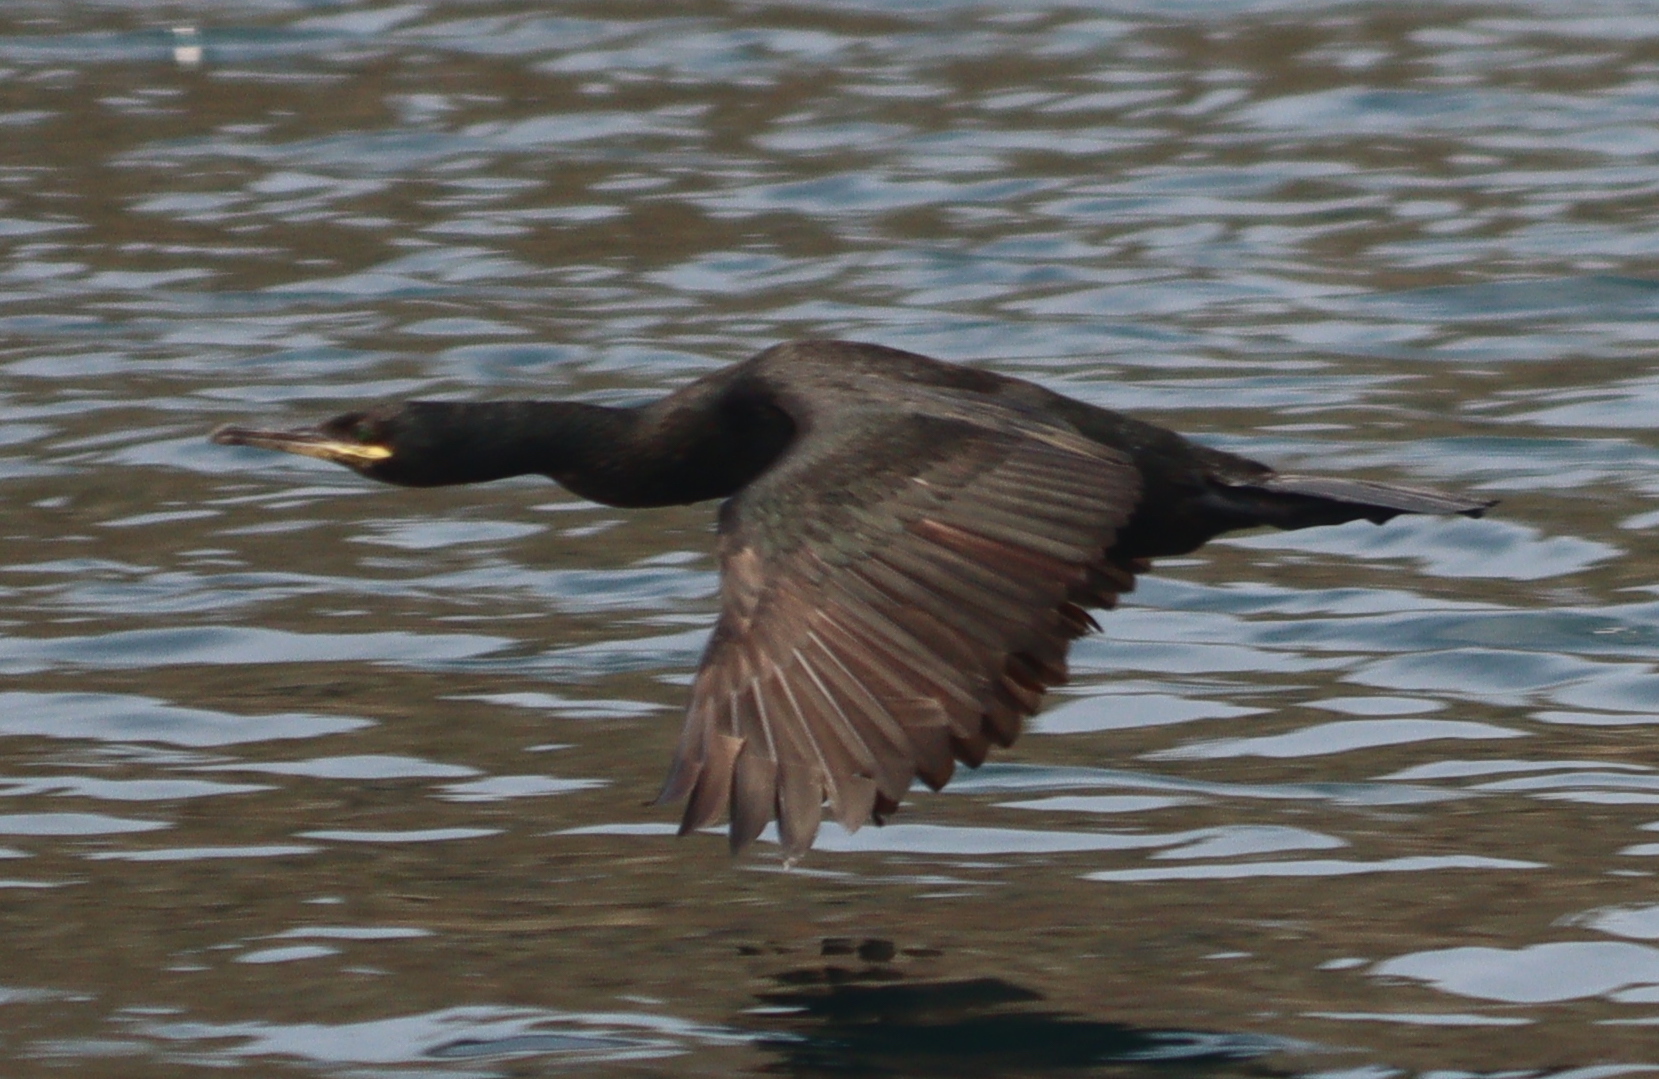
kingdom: Animalia
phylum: Chordata
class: Aves
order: Suliformes
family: Phalacrocoracidae
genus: Phalacrocorax
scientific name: Phalacrocorax aristotelis
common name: European shag
